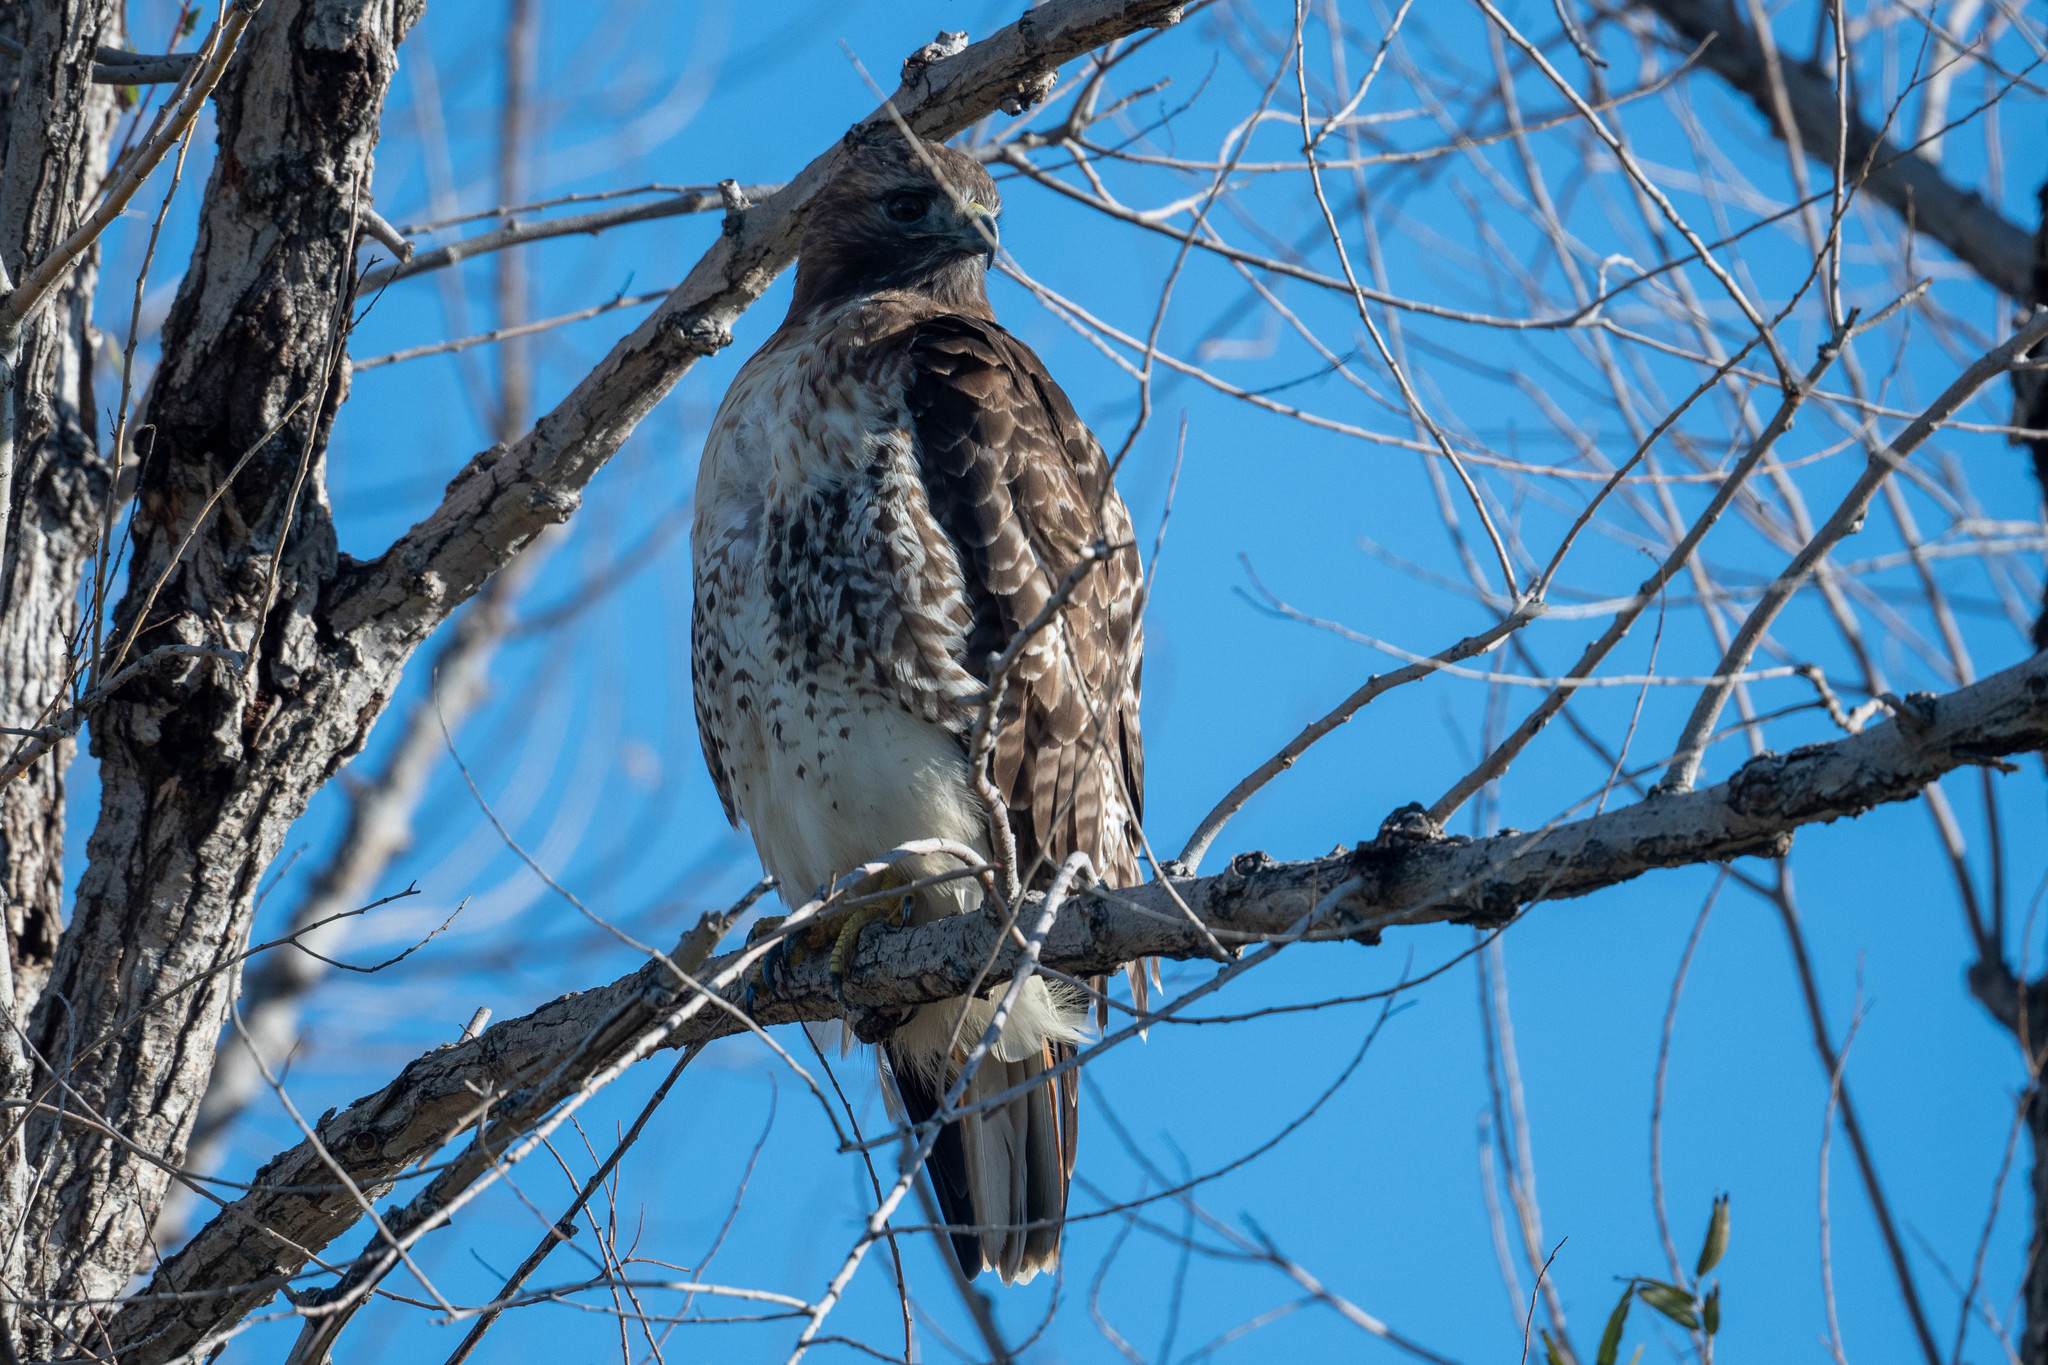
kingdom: Animalia
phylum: Chordata
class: Aves
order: Accipitriformes
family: Accipitridae
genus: Buteo
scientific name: Buteo jamaicensis
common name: Red-tailed hawk
